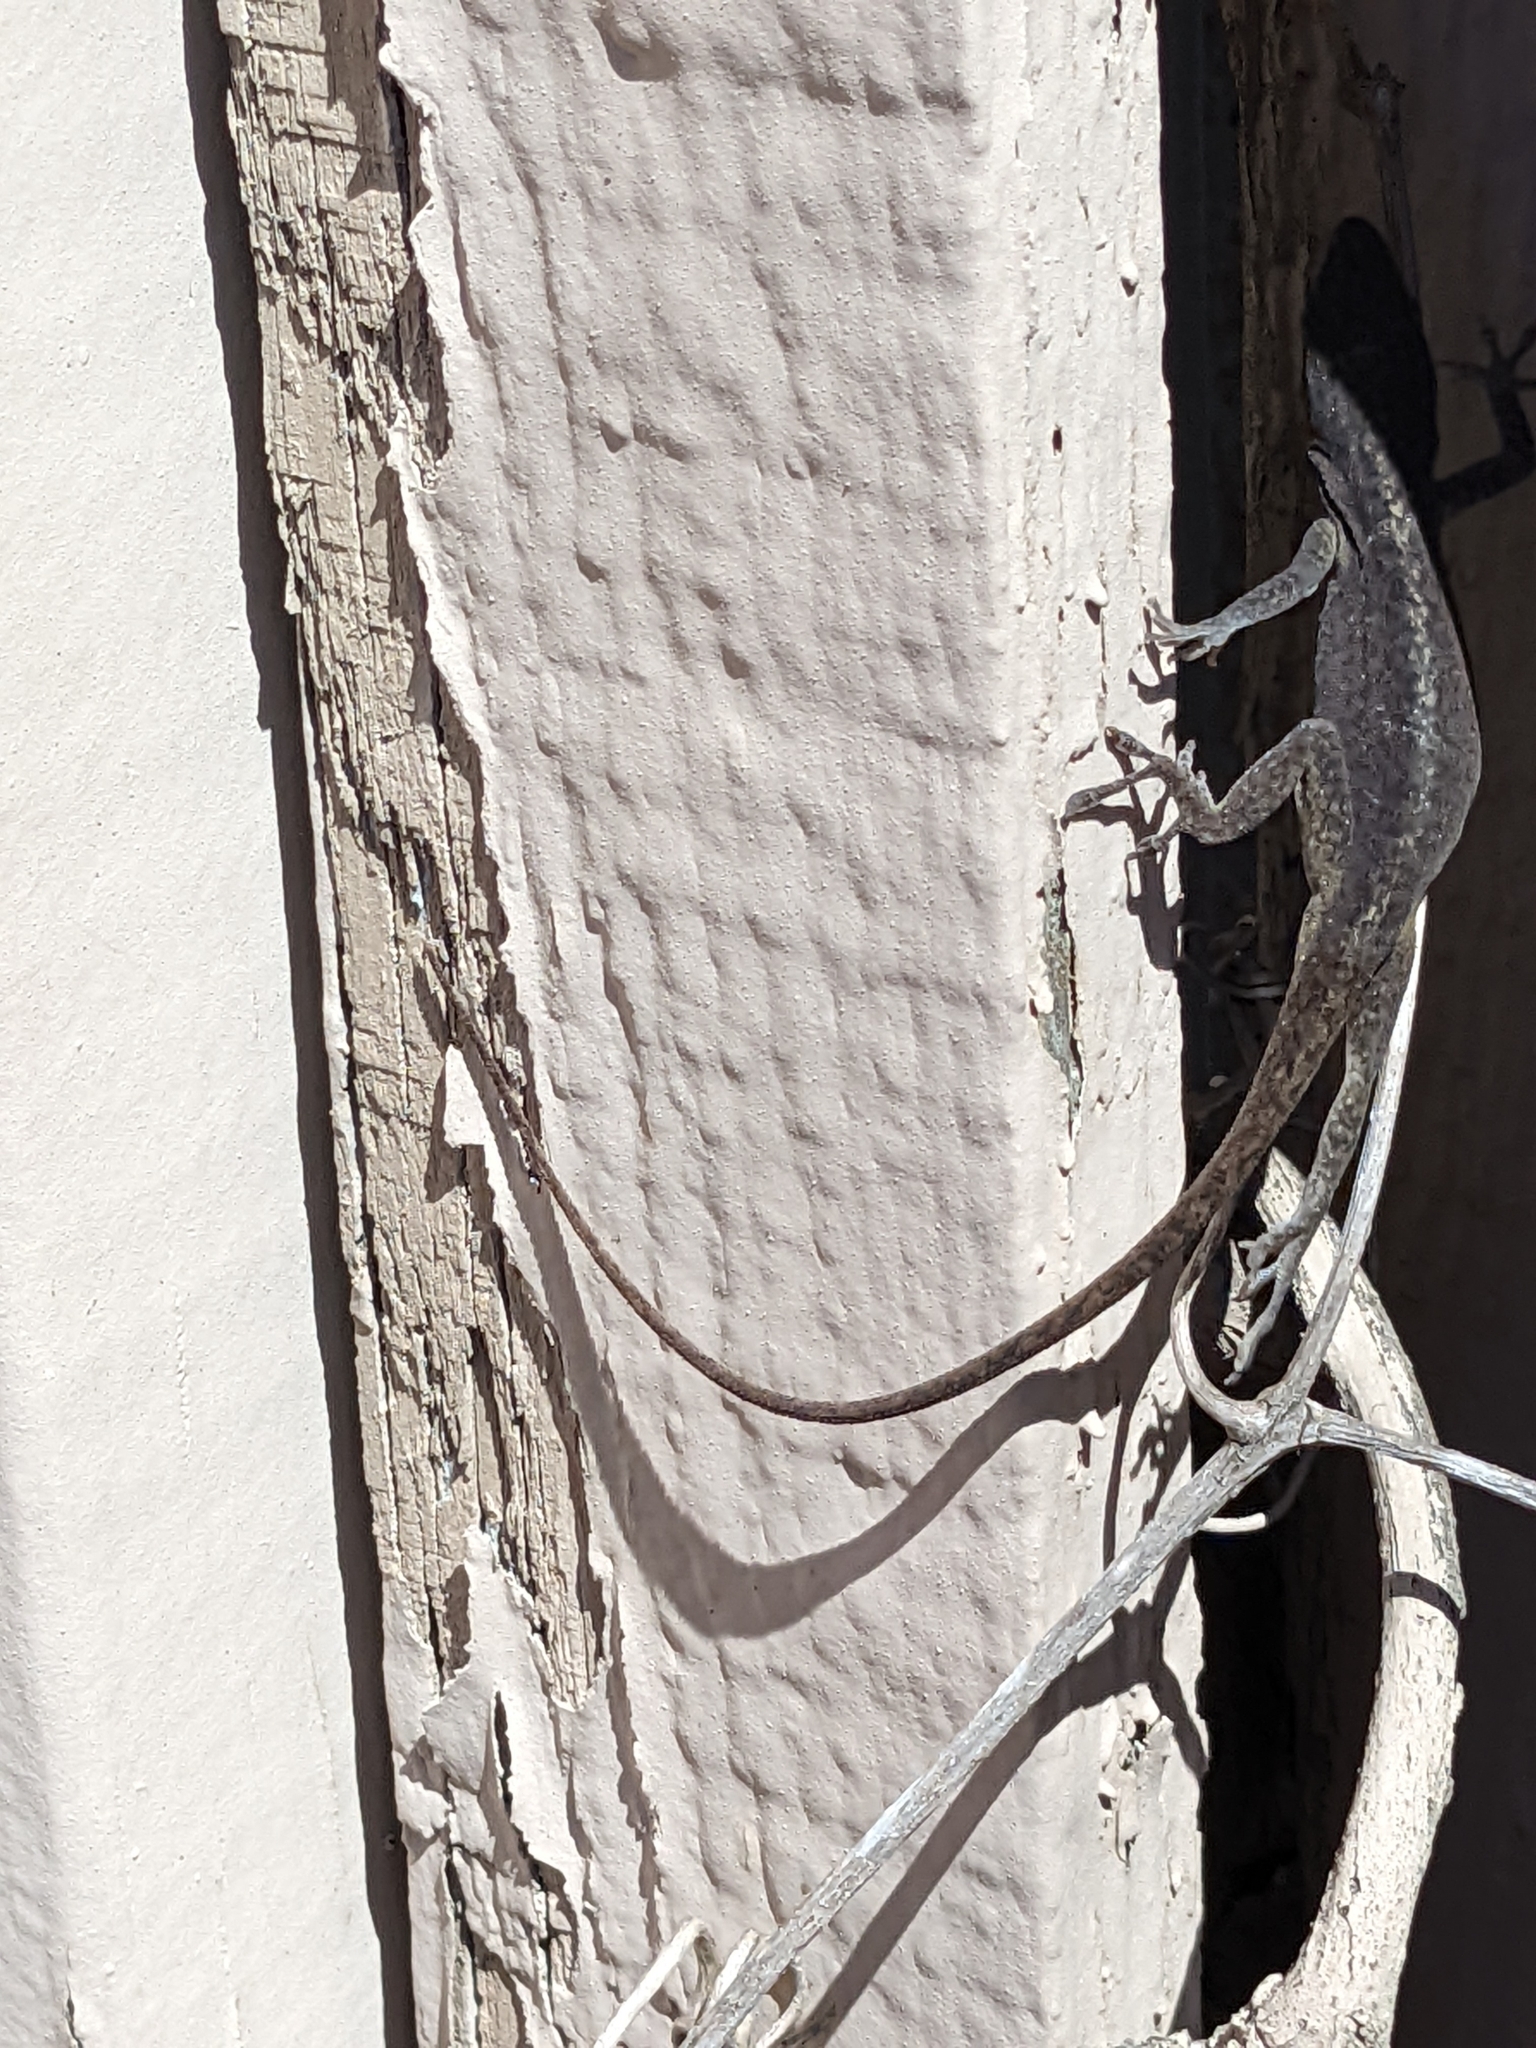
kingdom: Animalia
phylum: Chordata
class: Squamata
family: Dactyloidae
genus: Anolis
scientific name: Anolis carolinensis
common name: Green anole
